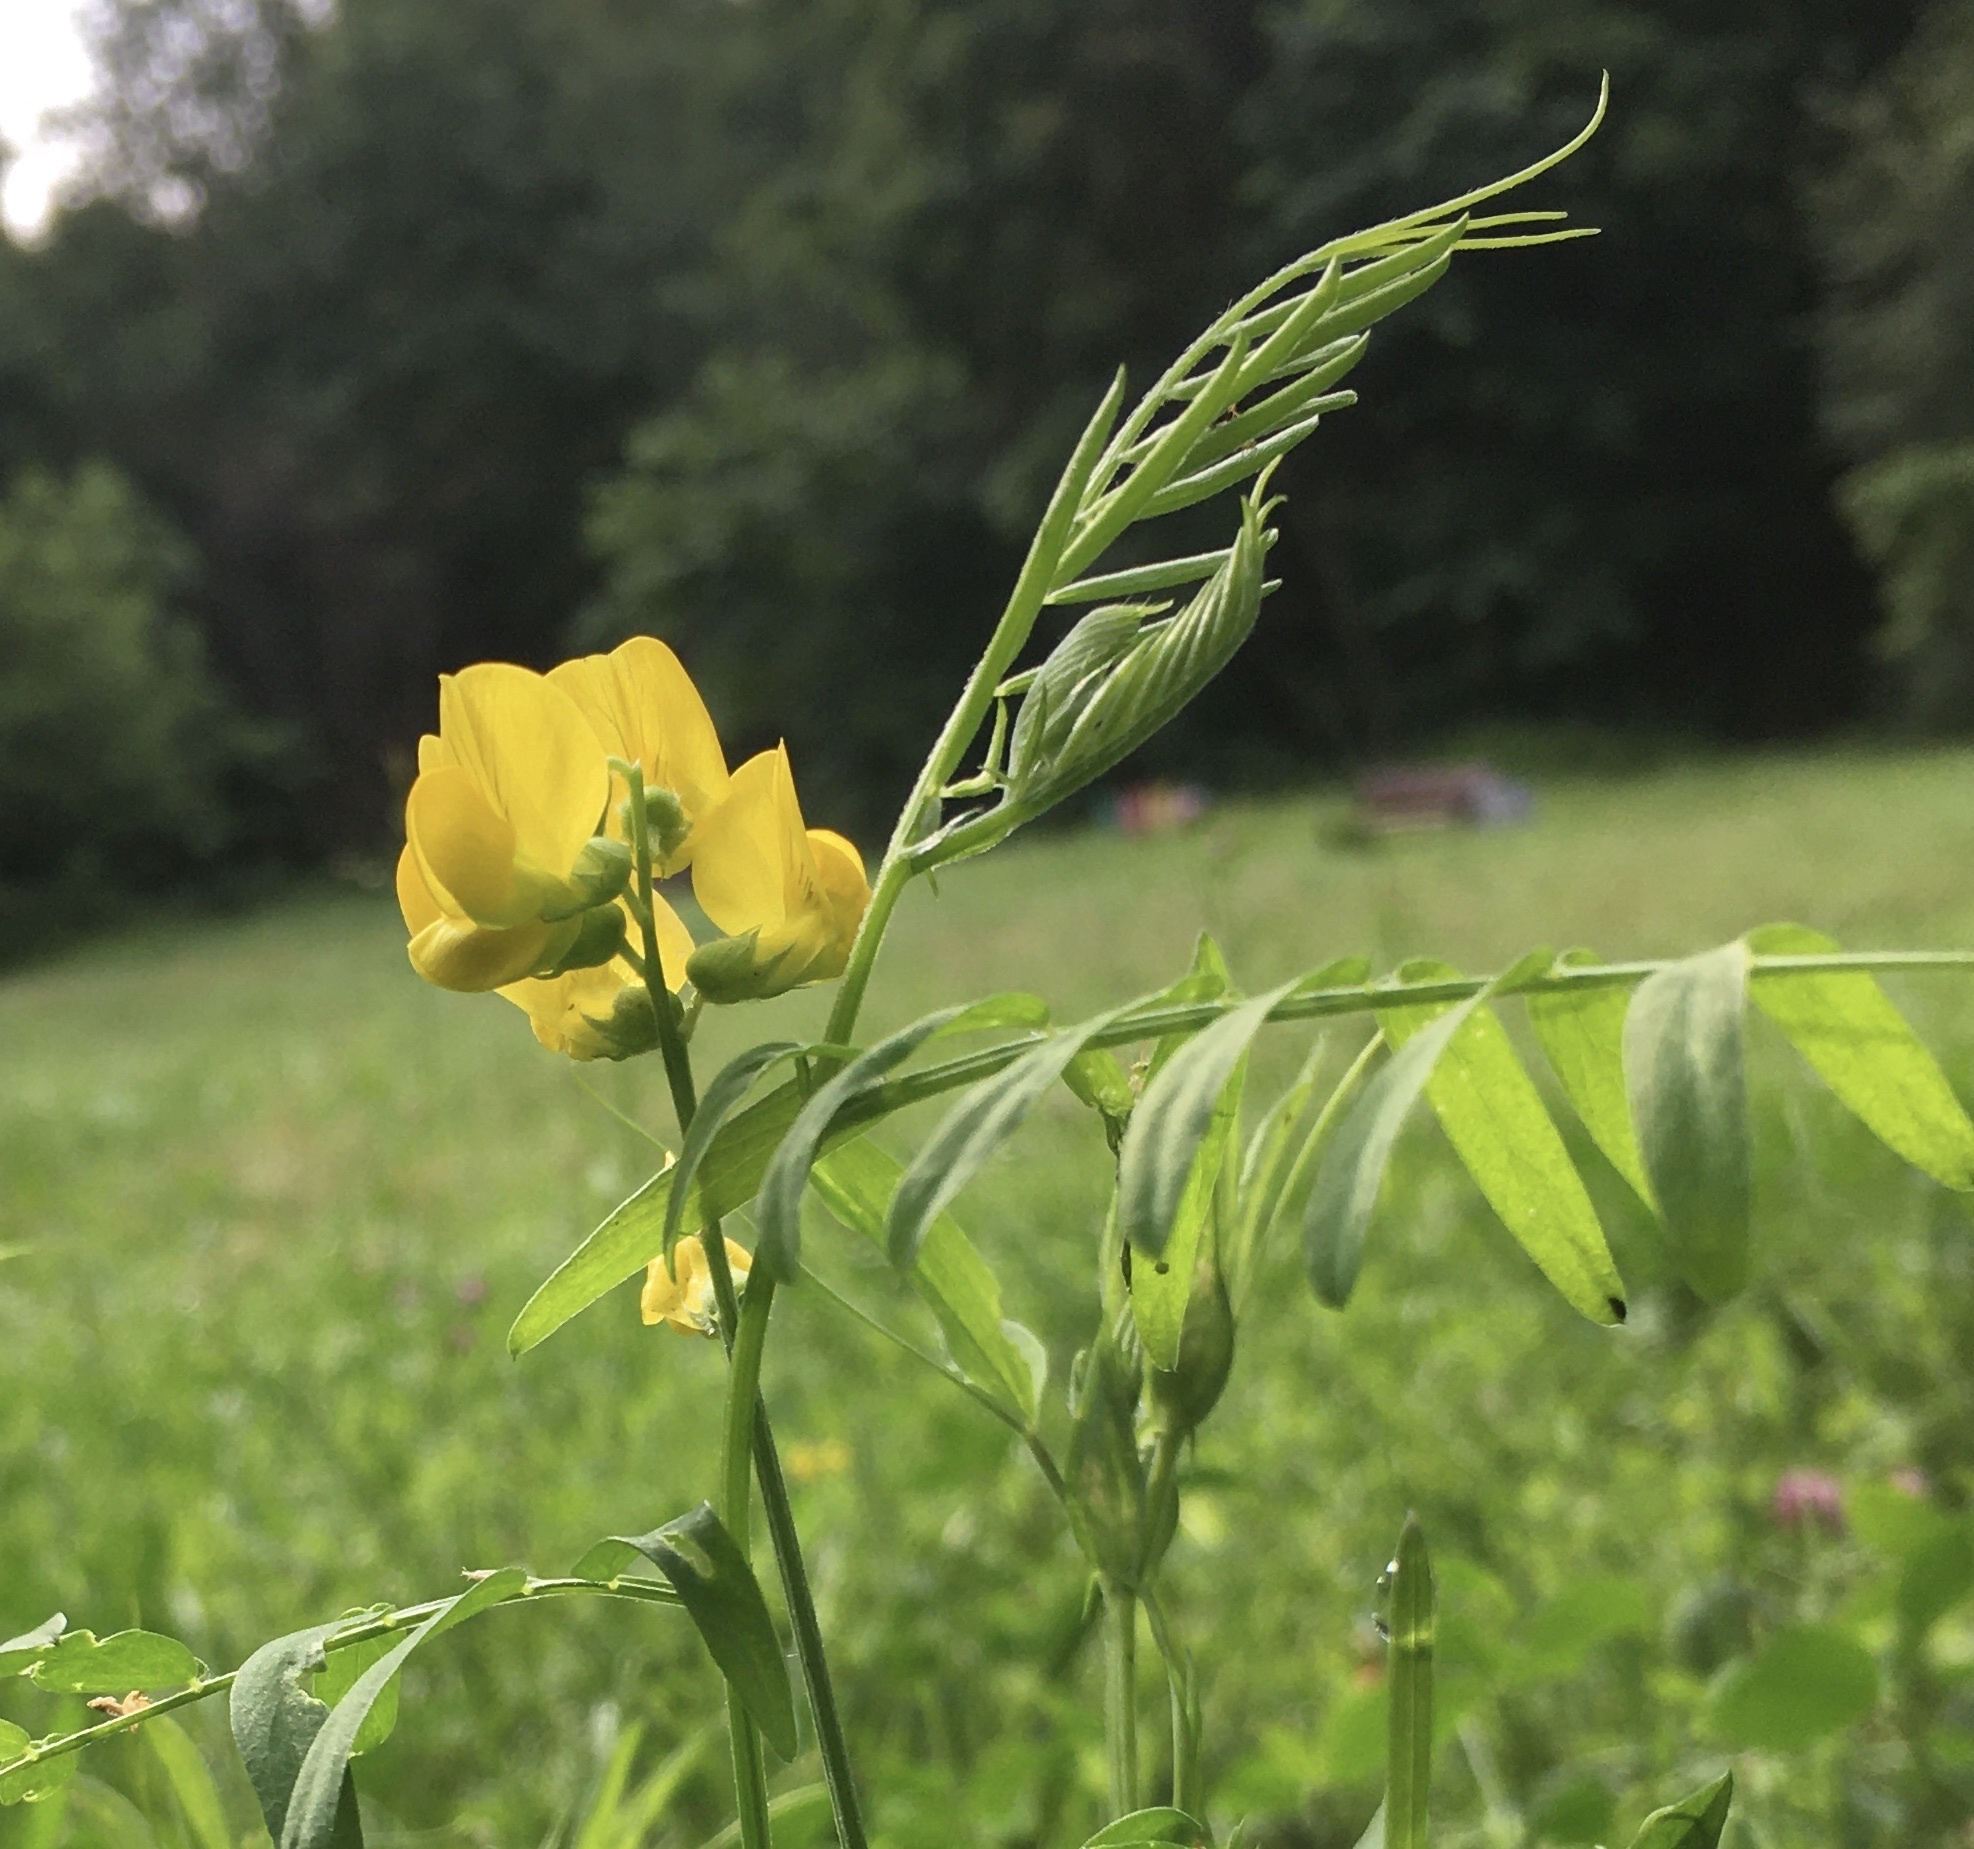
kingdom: Plantae
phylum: Tracheophyta
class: Magnoliopsida
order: Fabales
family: Fabaceae
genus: Lathyrus
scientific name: Lathyrus pratensis
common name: Meadow vetchling
